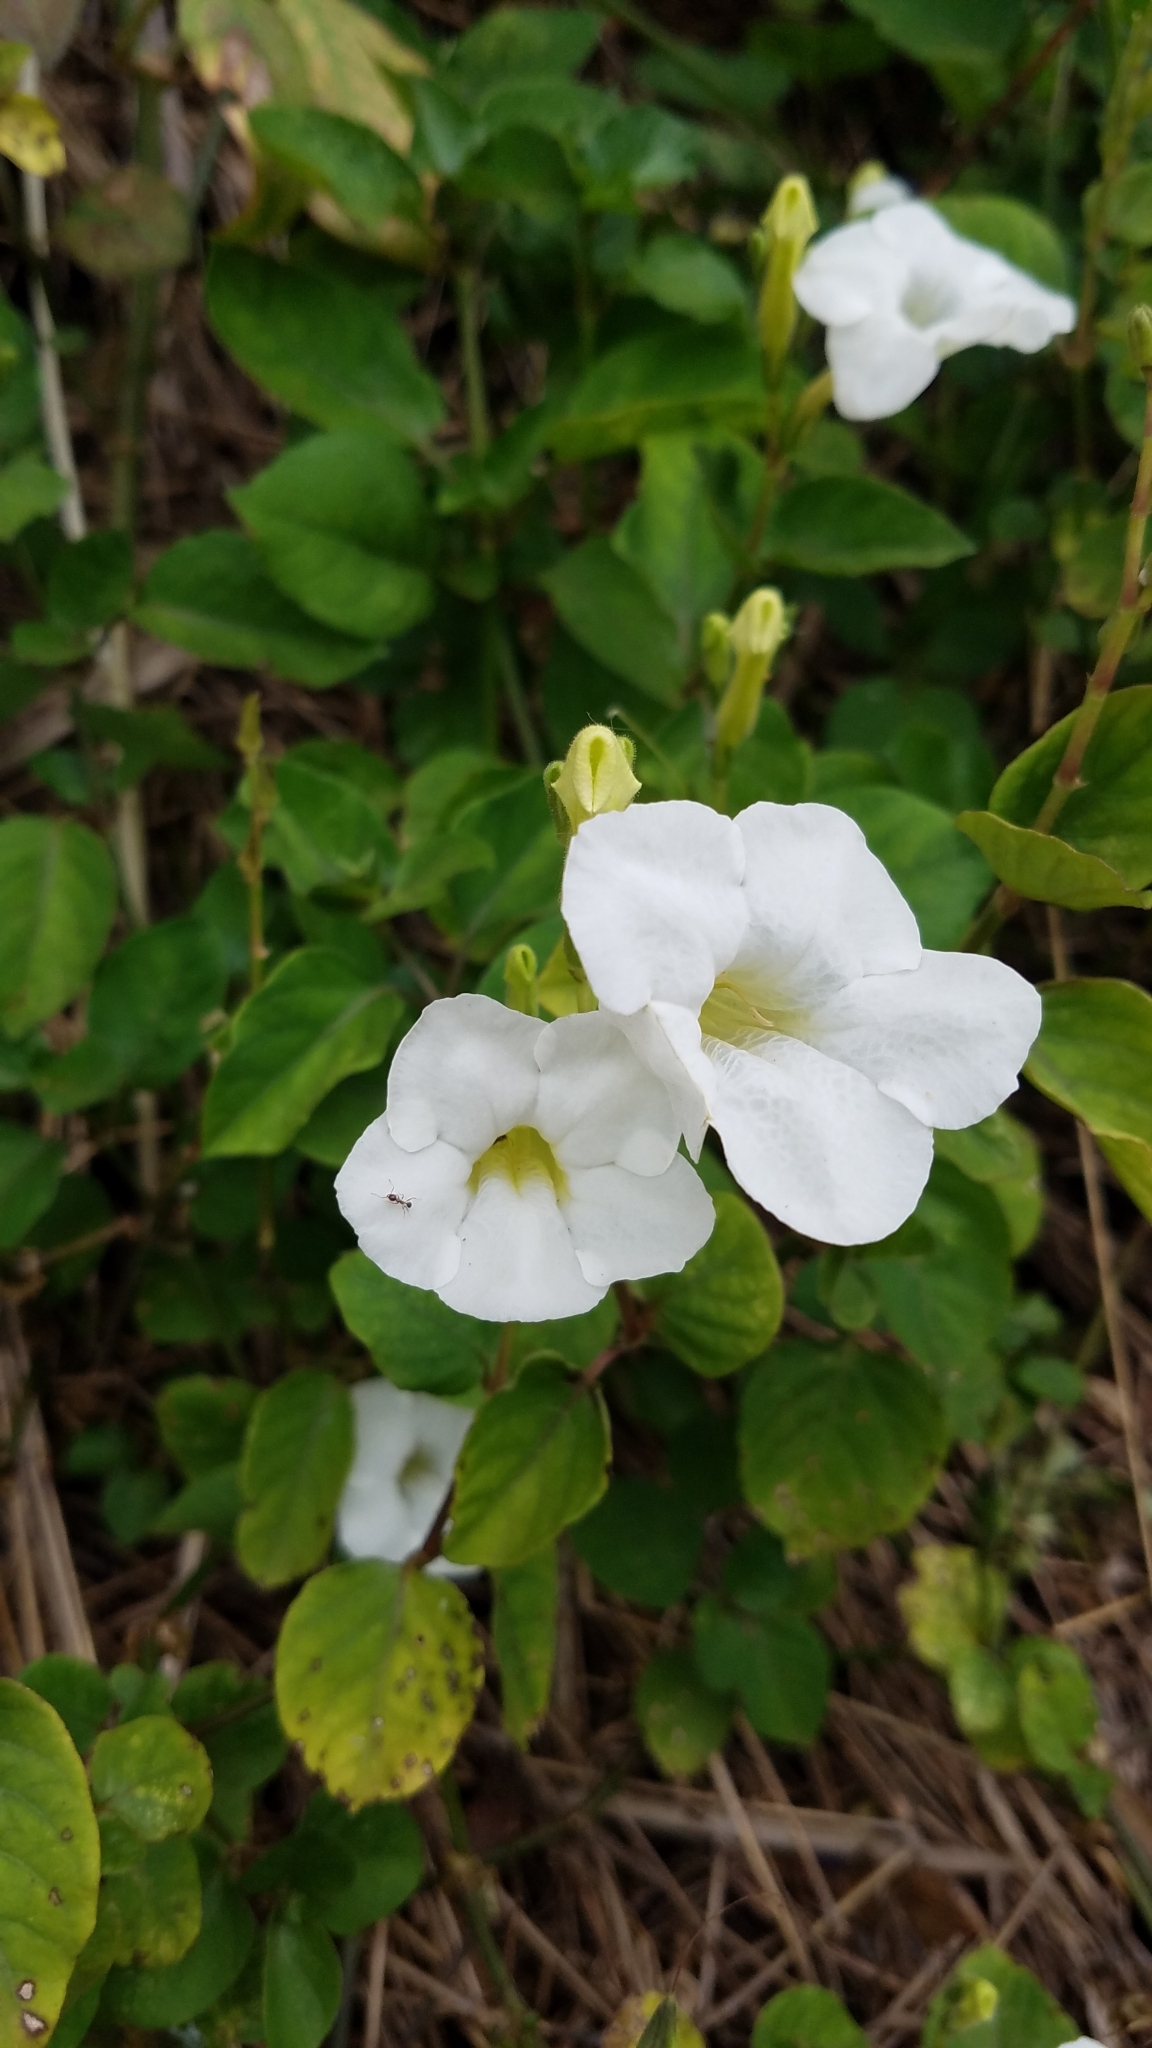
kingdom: Plantae
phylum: Tracheophyta
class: Magnoliopsida
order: Lamiales
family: Acanthaceae
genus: Asystasia
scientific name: Asystasia gangetica
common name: Chinese violet
